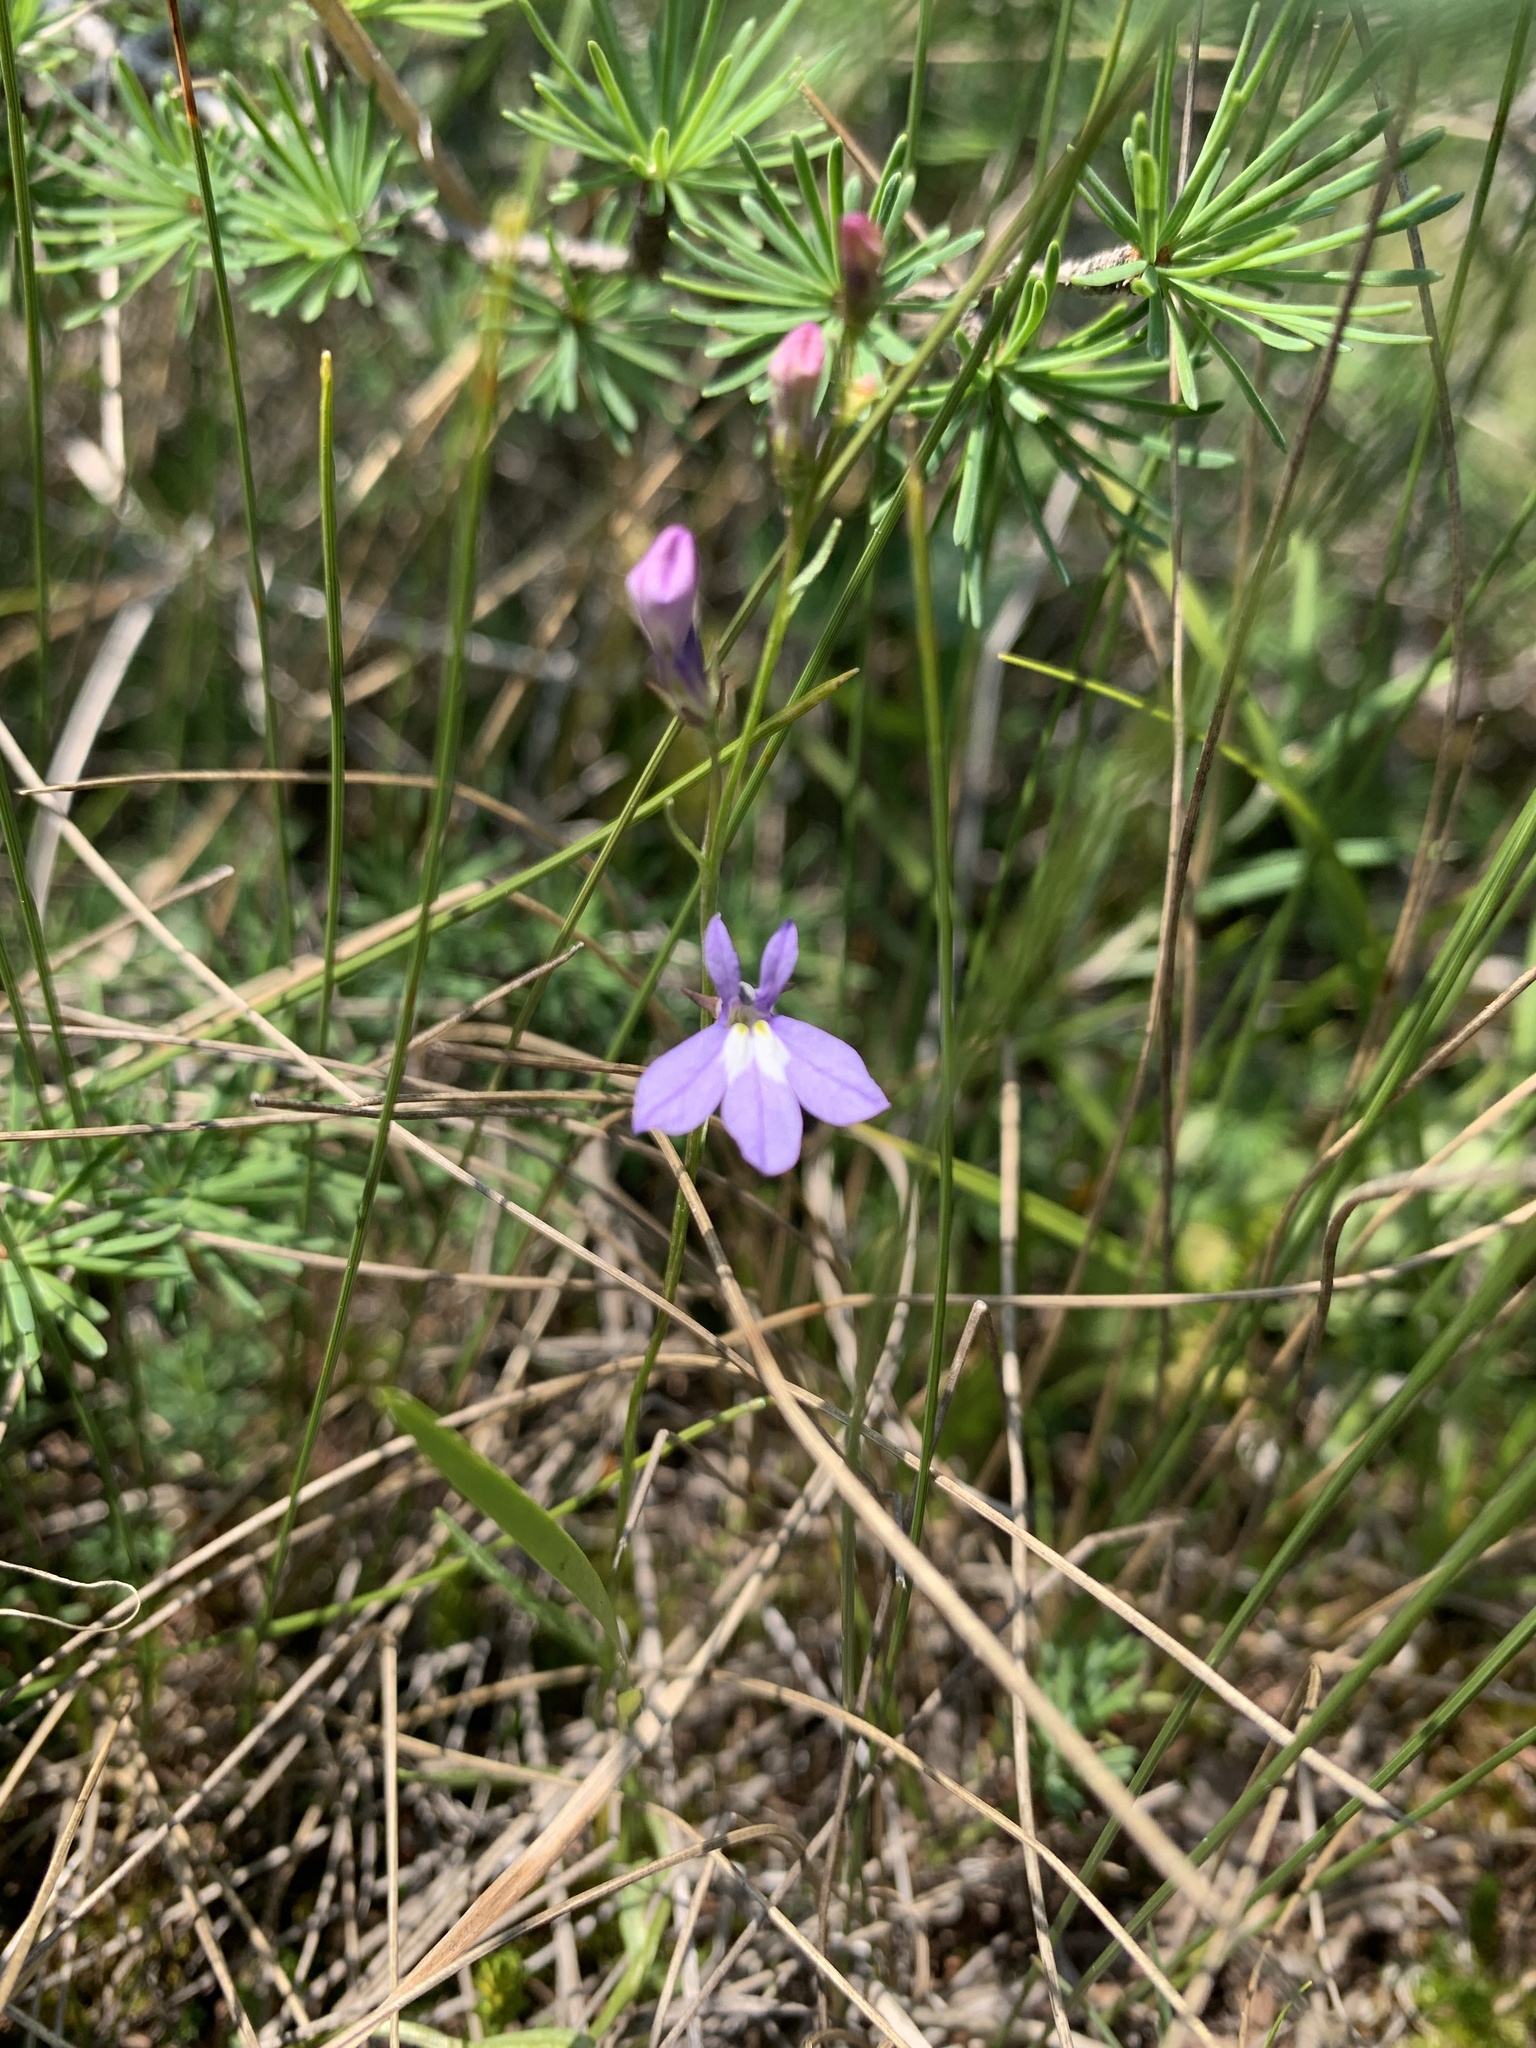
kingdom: Plantae
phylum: Tracheophyta
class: Magnoliopsida
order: Asterales
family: Campanulaceae
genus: Lobelia
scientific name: Lobelia kalmii
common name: Kalm's lobelia
